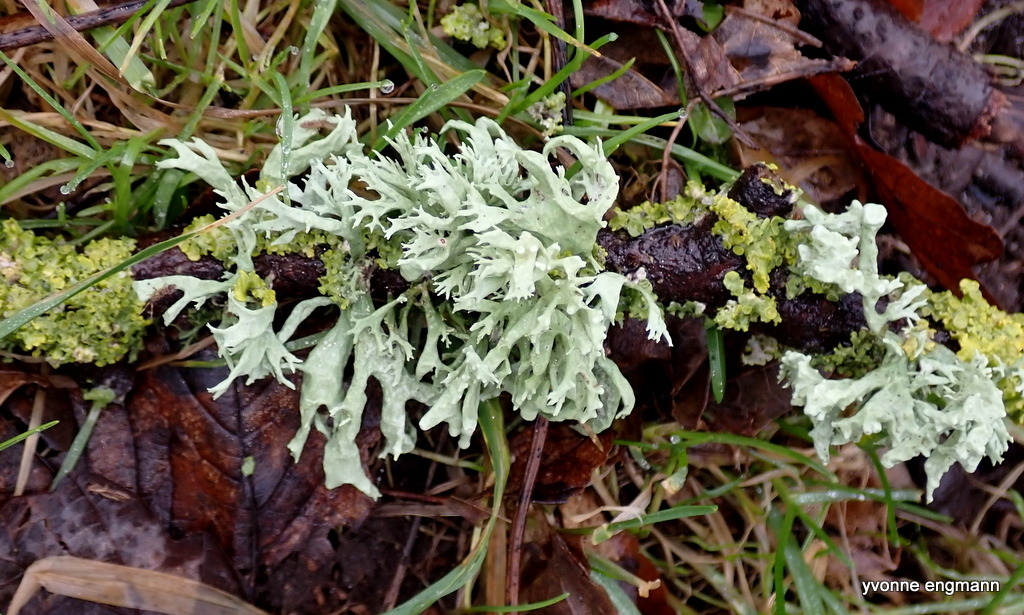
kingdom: Fungi
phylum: Ascomycota
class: Lecanoromycetes
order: Lecanorales
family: Ramalinaceae
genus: Ramalina
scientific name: Ramalina fastigiata
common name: Dotted ribbon lichen
